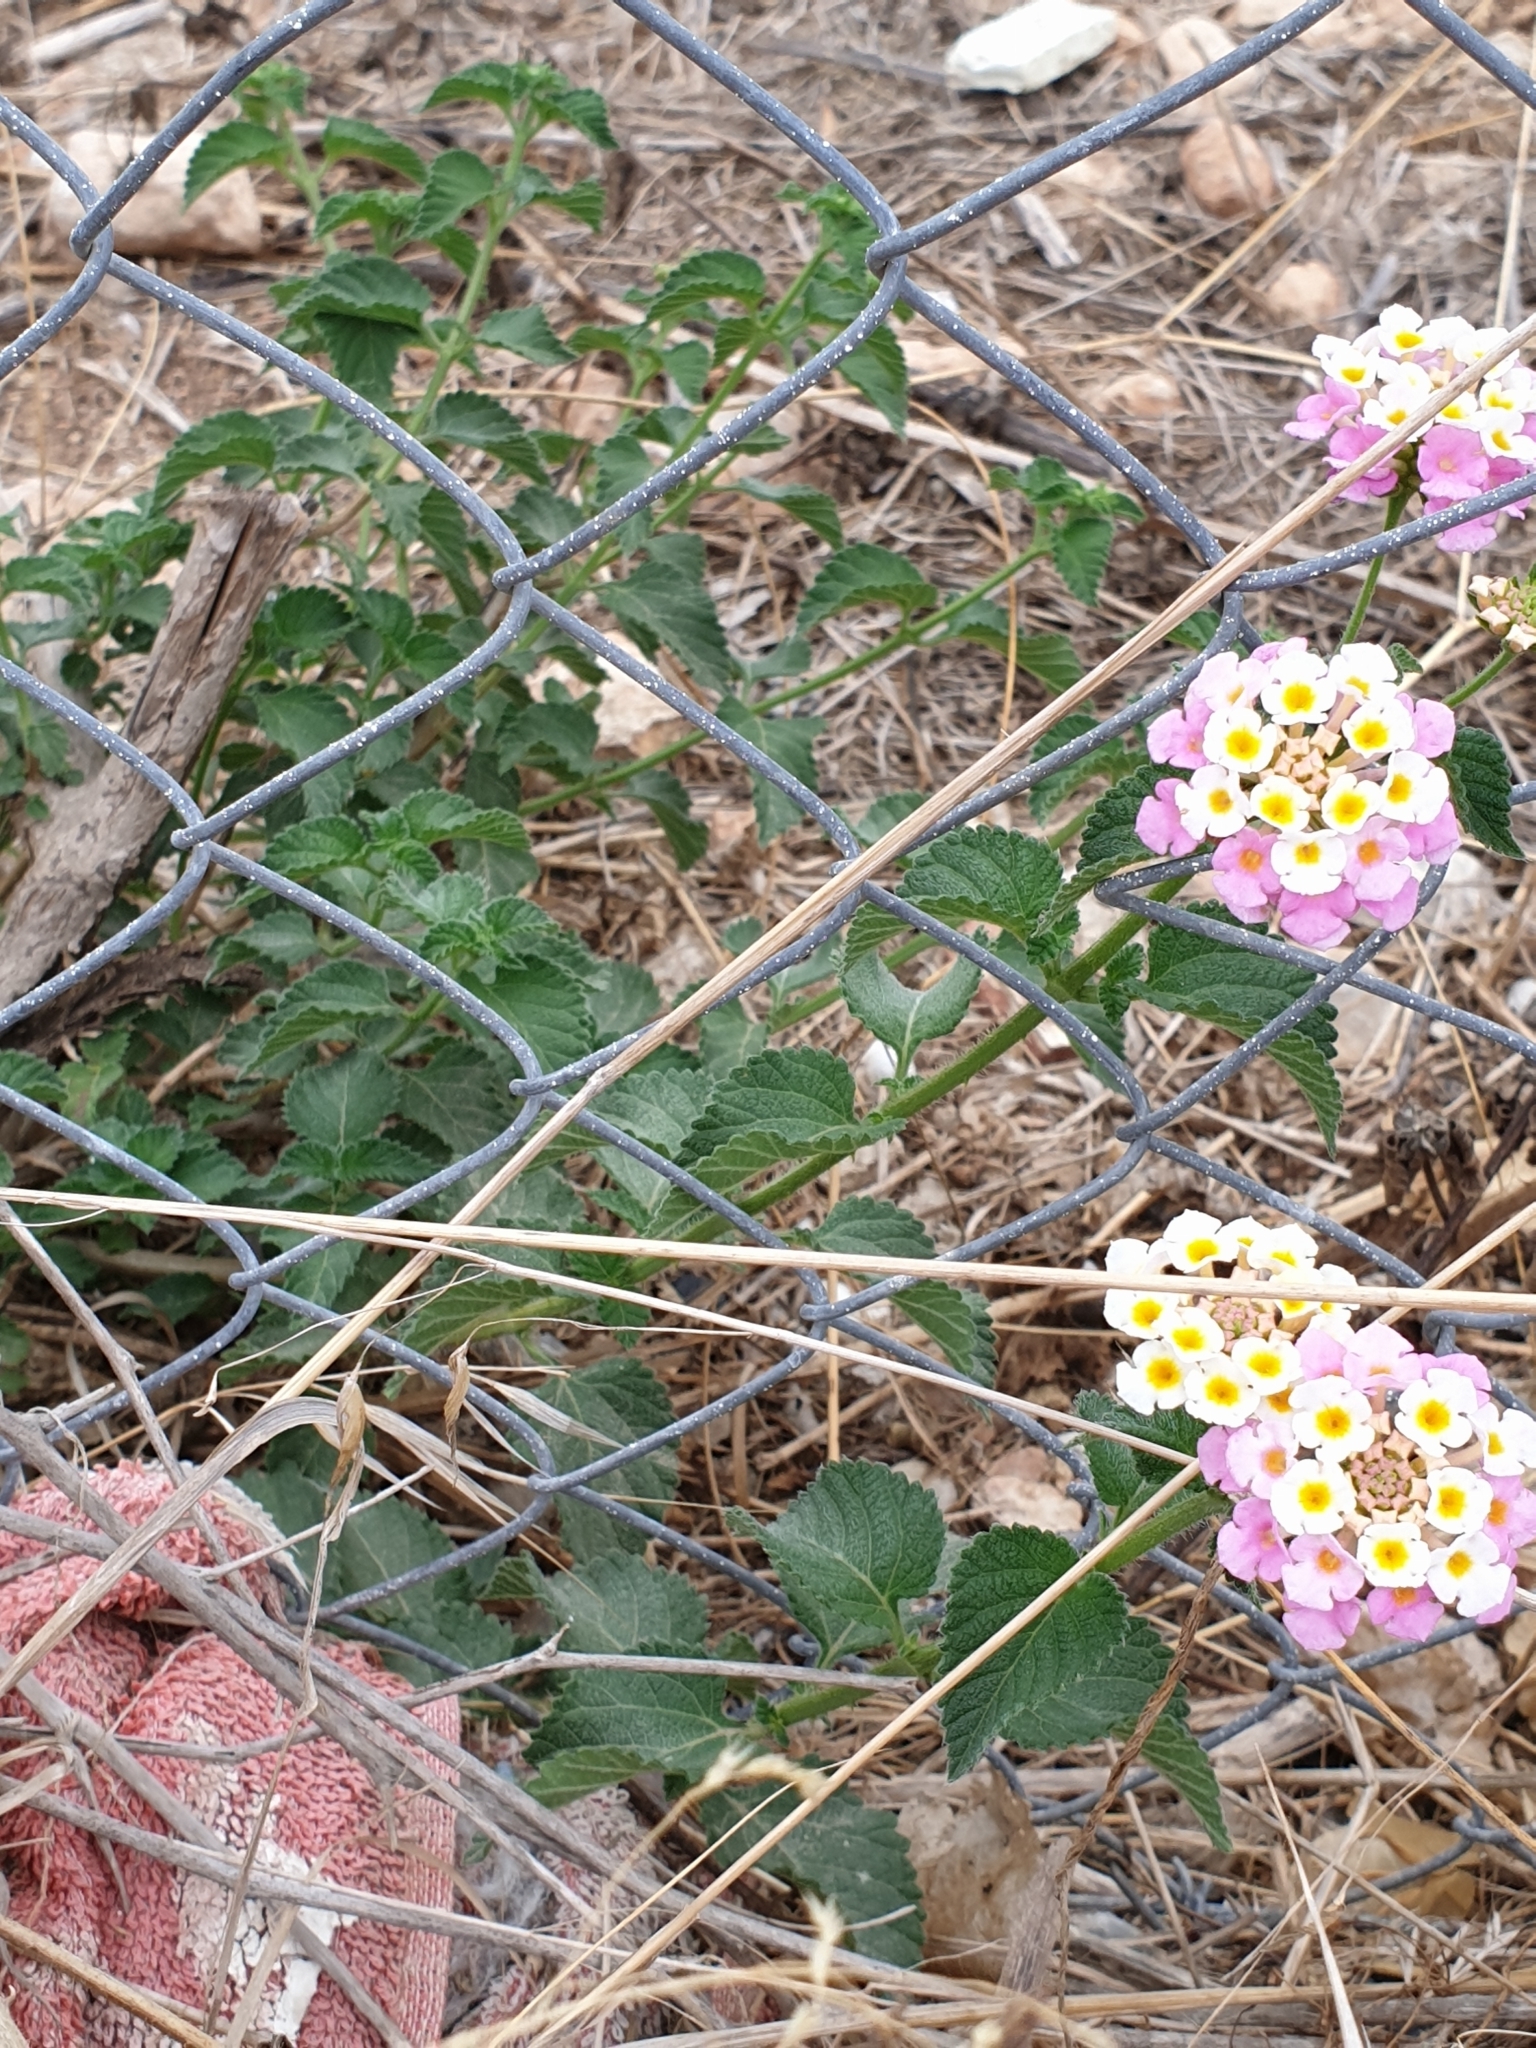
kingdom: Plantae
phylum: Tracheophyta
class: Magnoliopsida
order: Lamiales
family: Verbenaceae
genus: Lantana
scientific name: Lantana camara
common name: Lantana
